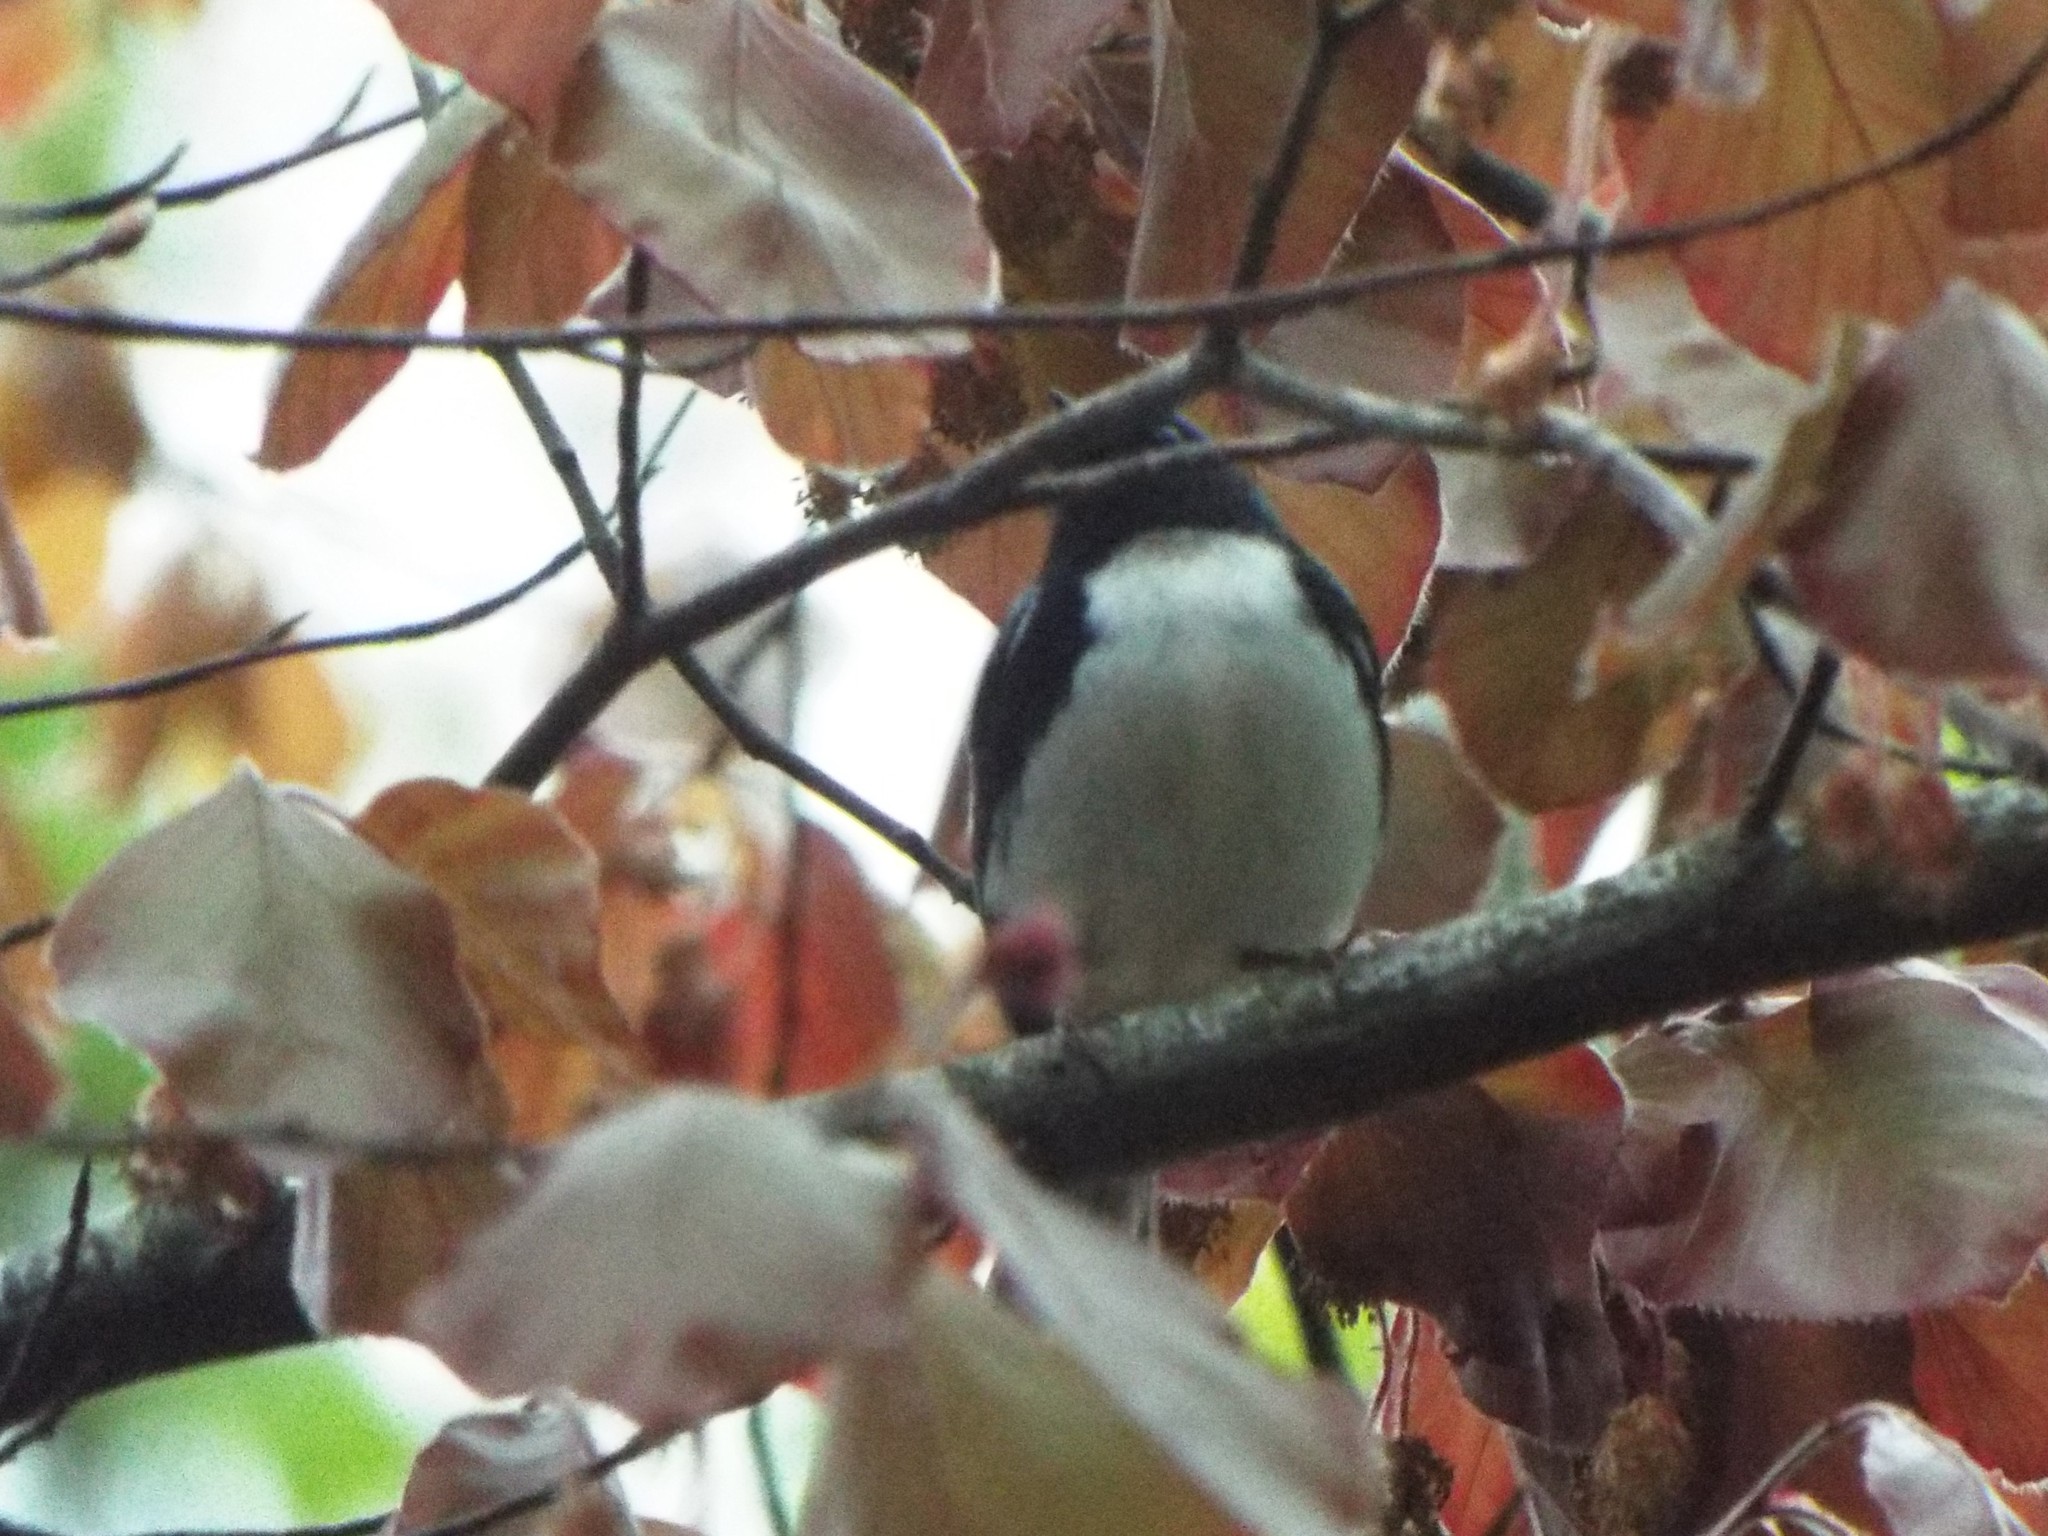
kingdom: Animalia
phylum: Chordata
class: Aves
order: Passeriformes
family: Parulidae
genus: Setophaga
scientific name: Setophaga caerulescens
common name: Black-throated blue warbler
